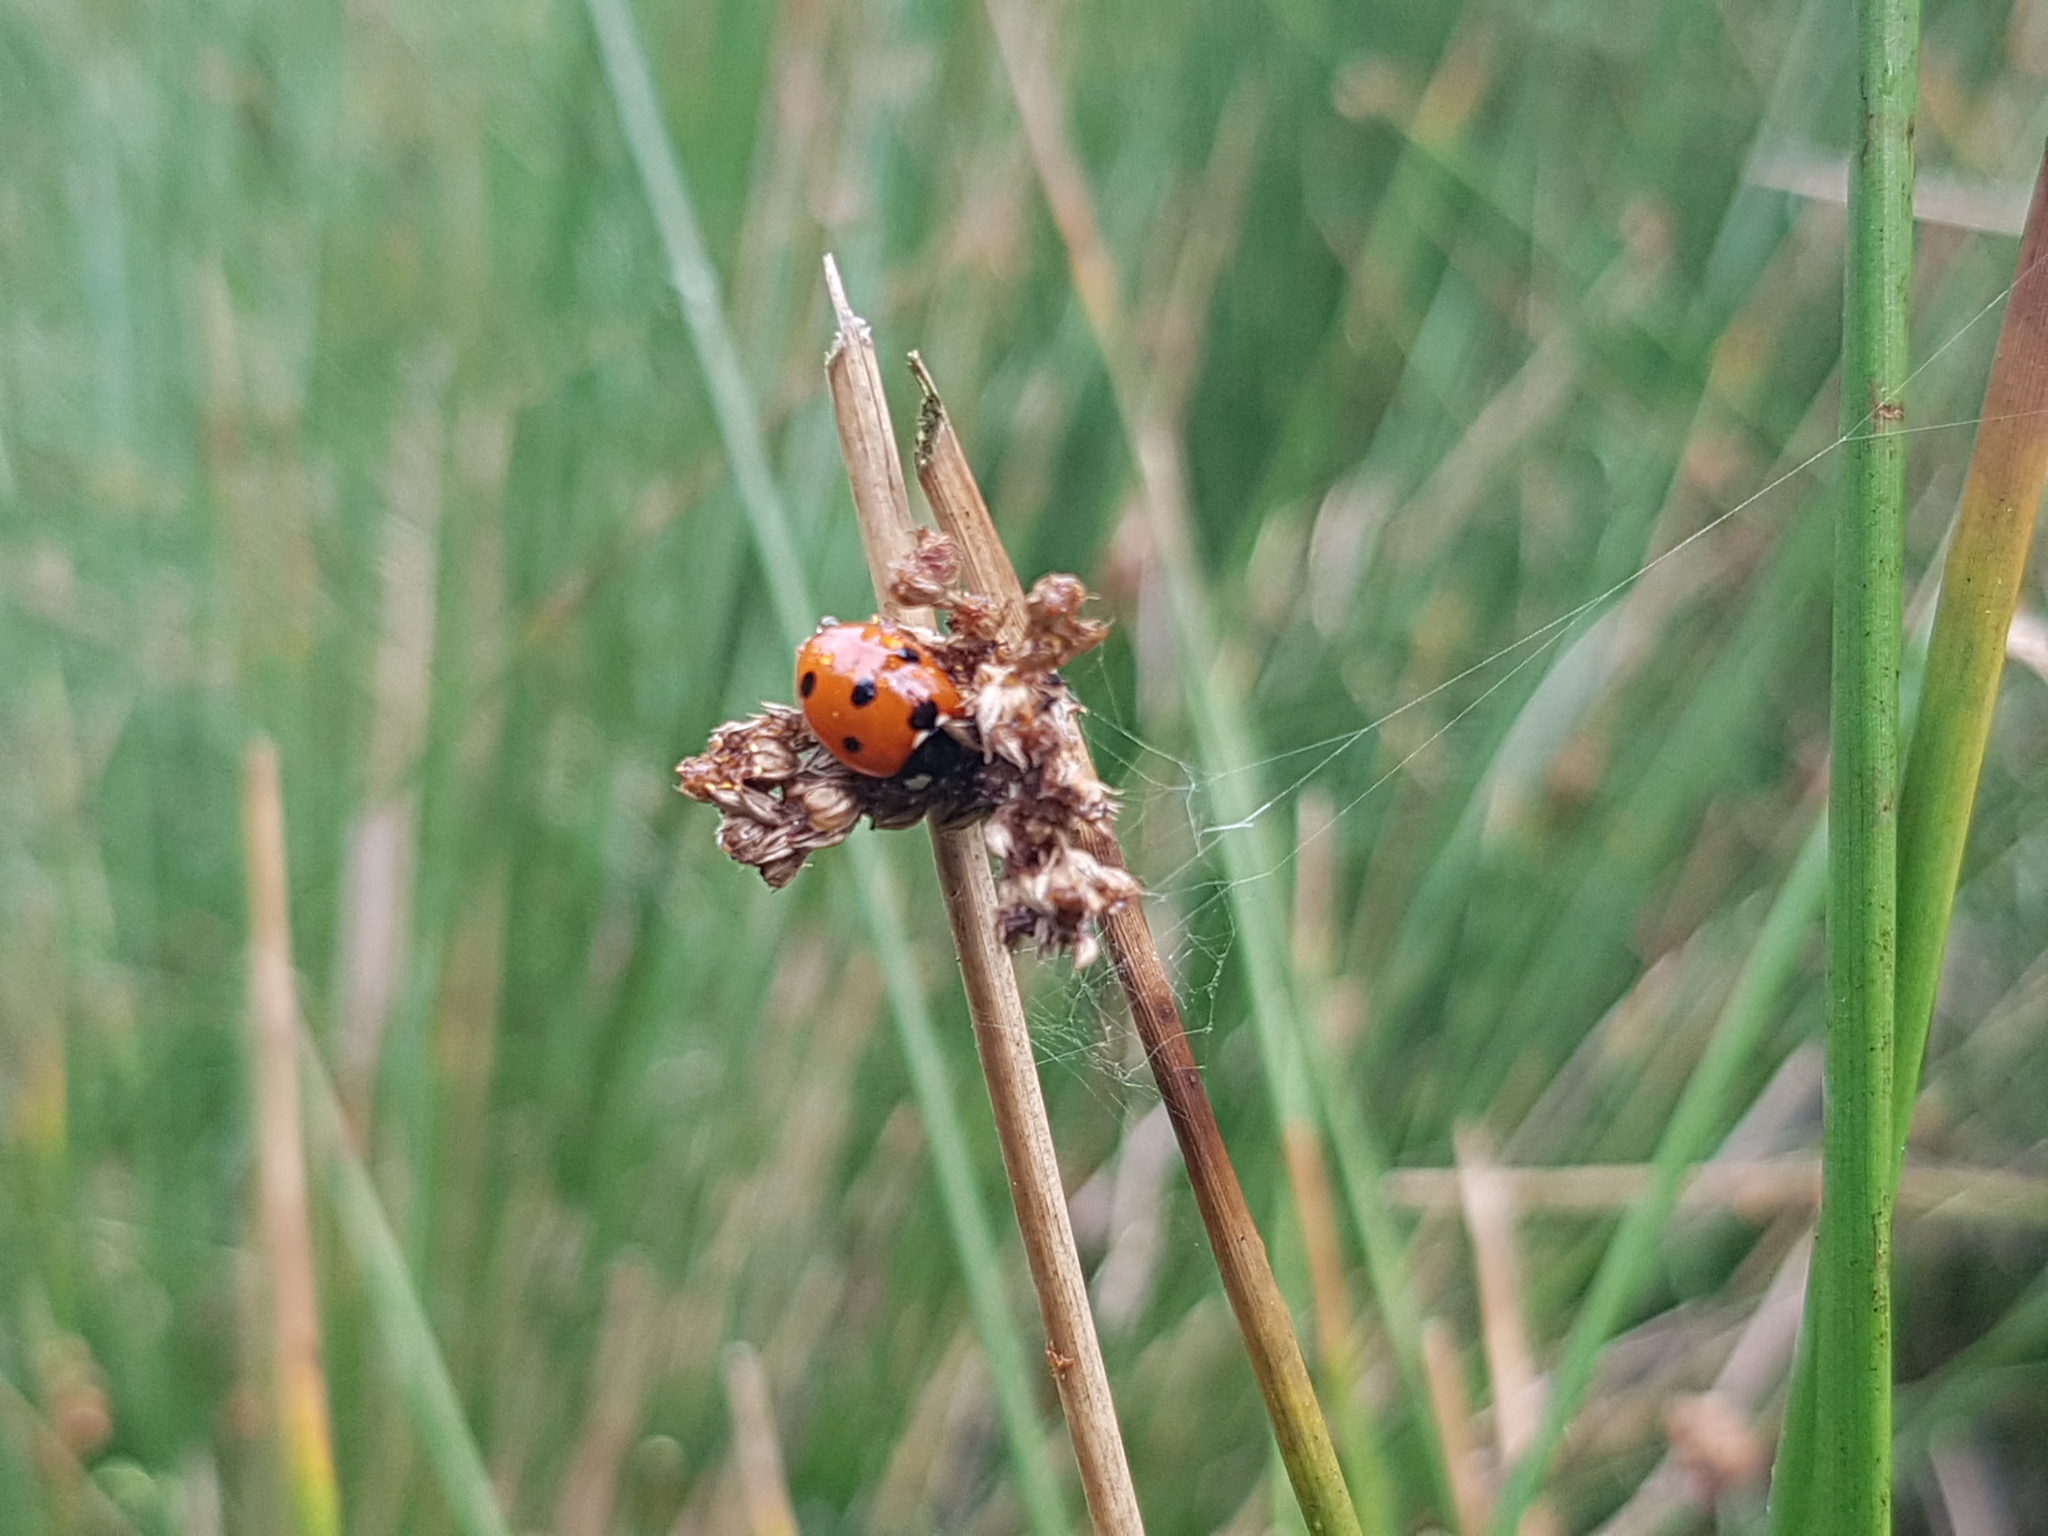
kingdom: Animalia
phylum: Arthropoda
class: Insecta
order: Coleoptera
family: Coccinellidae
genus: Coccinella
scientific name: Coccinella septempunctata
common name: Sevenspotted lady beetle
